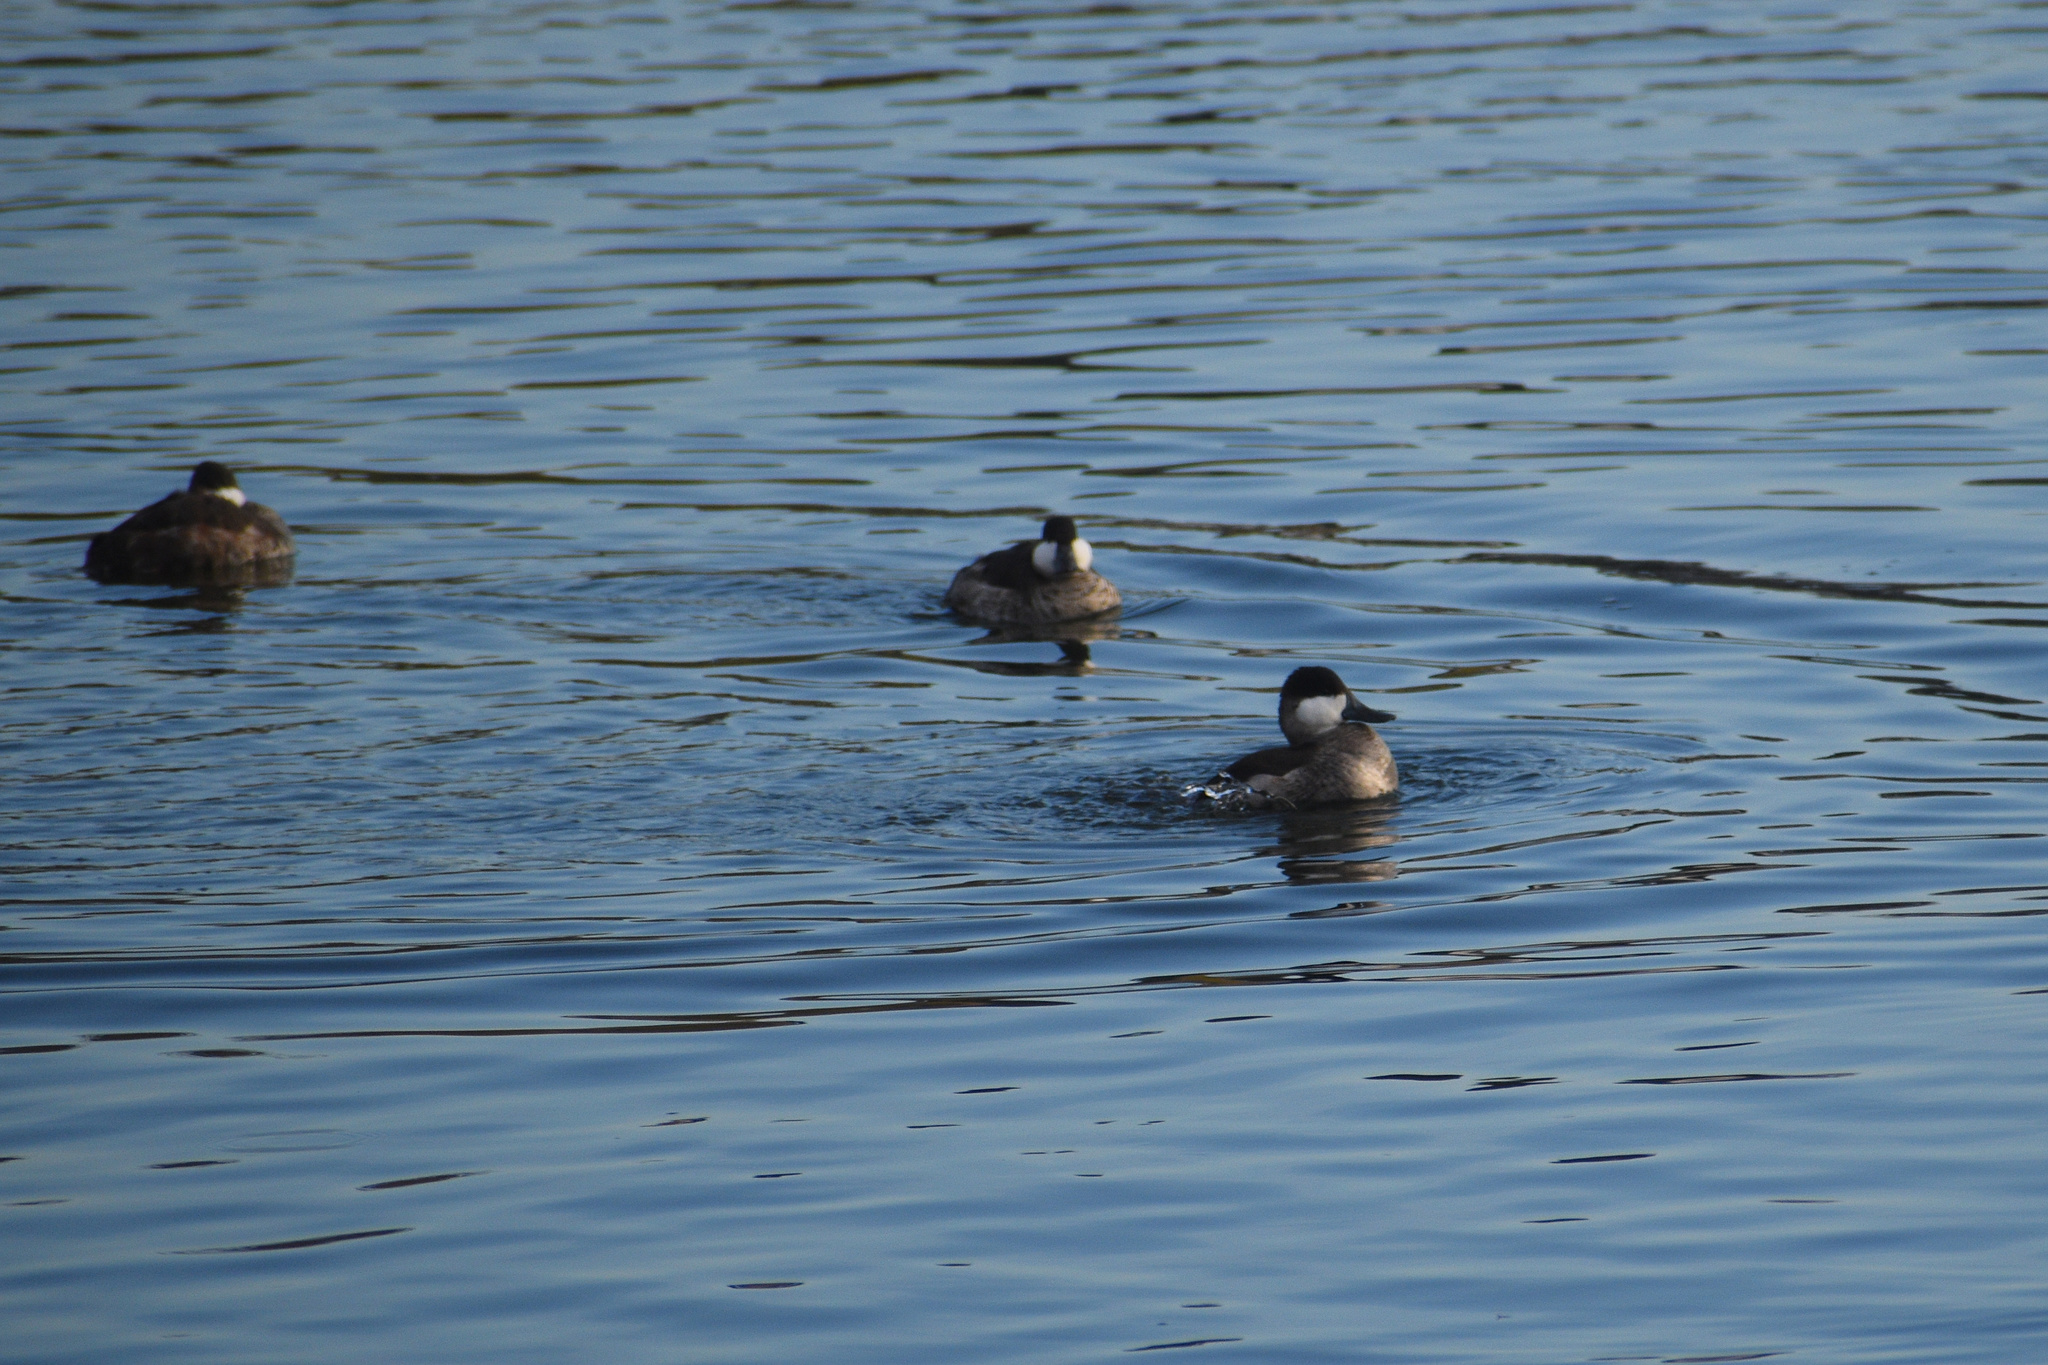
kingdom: Animalia
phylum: Chordata
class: Aves
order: Anseriformes
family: Anatidae
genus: Oxyura
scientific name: Oxyura jamaicensis
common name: Ruddy duck
